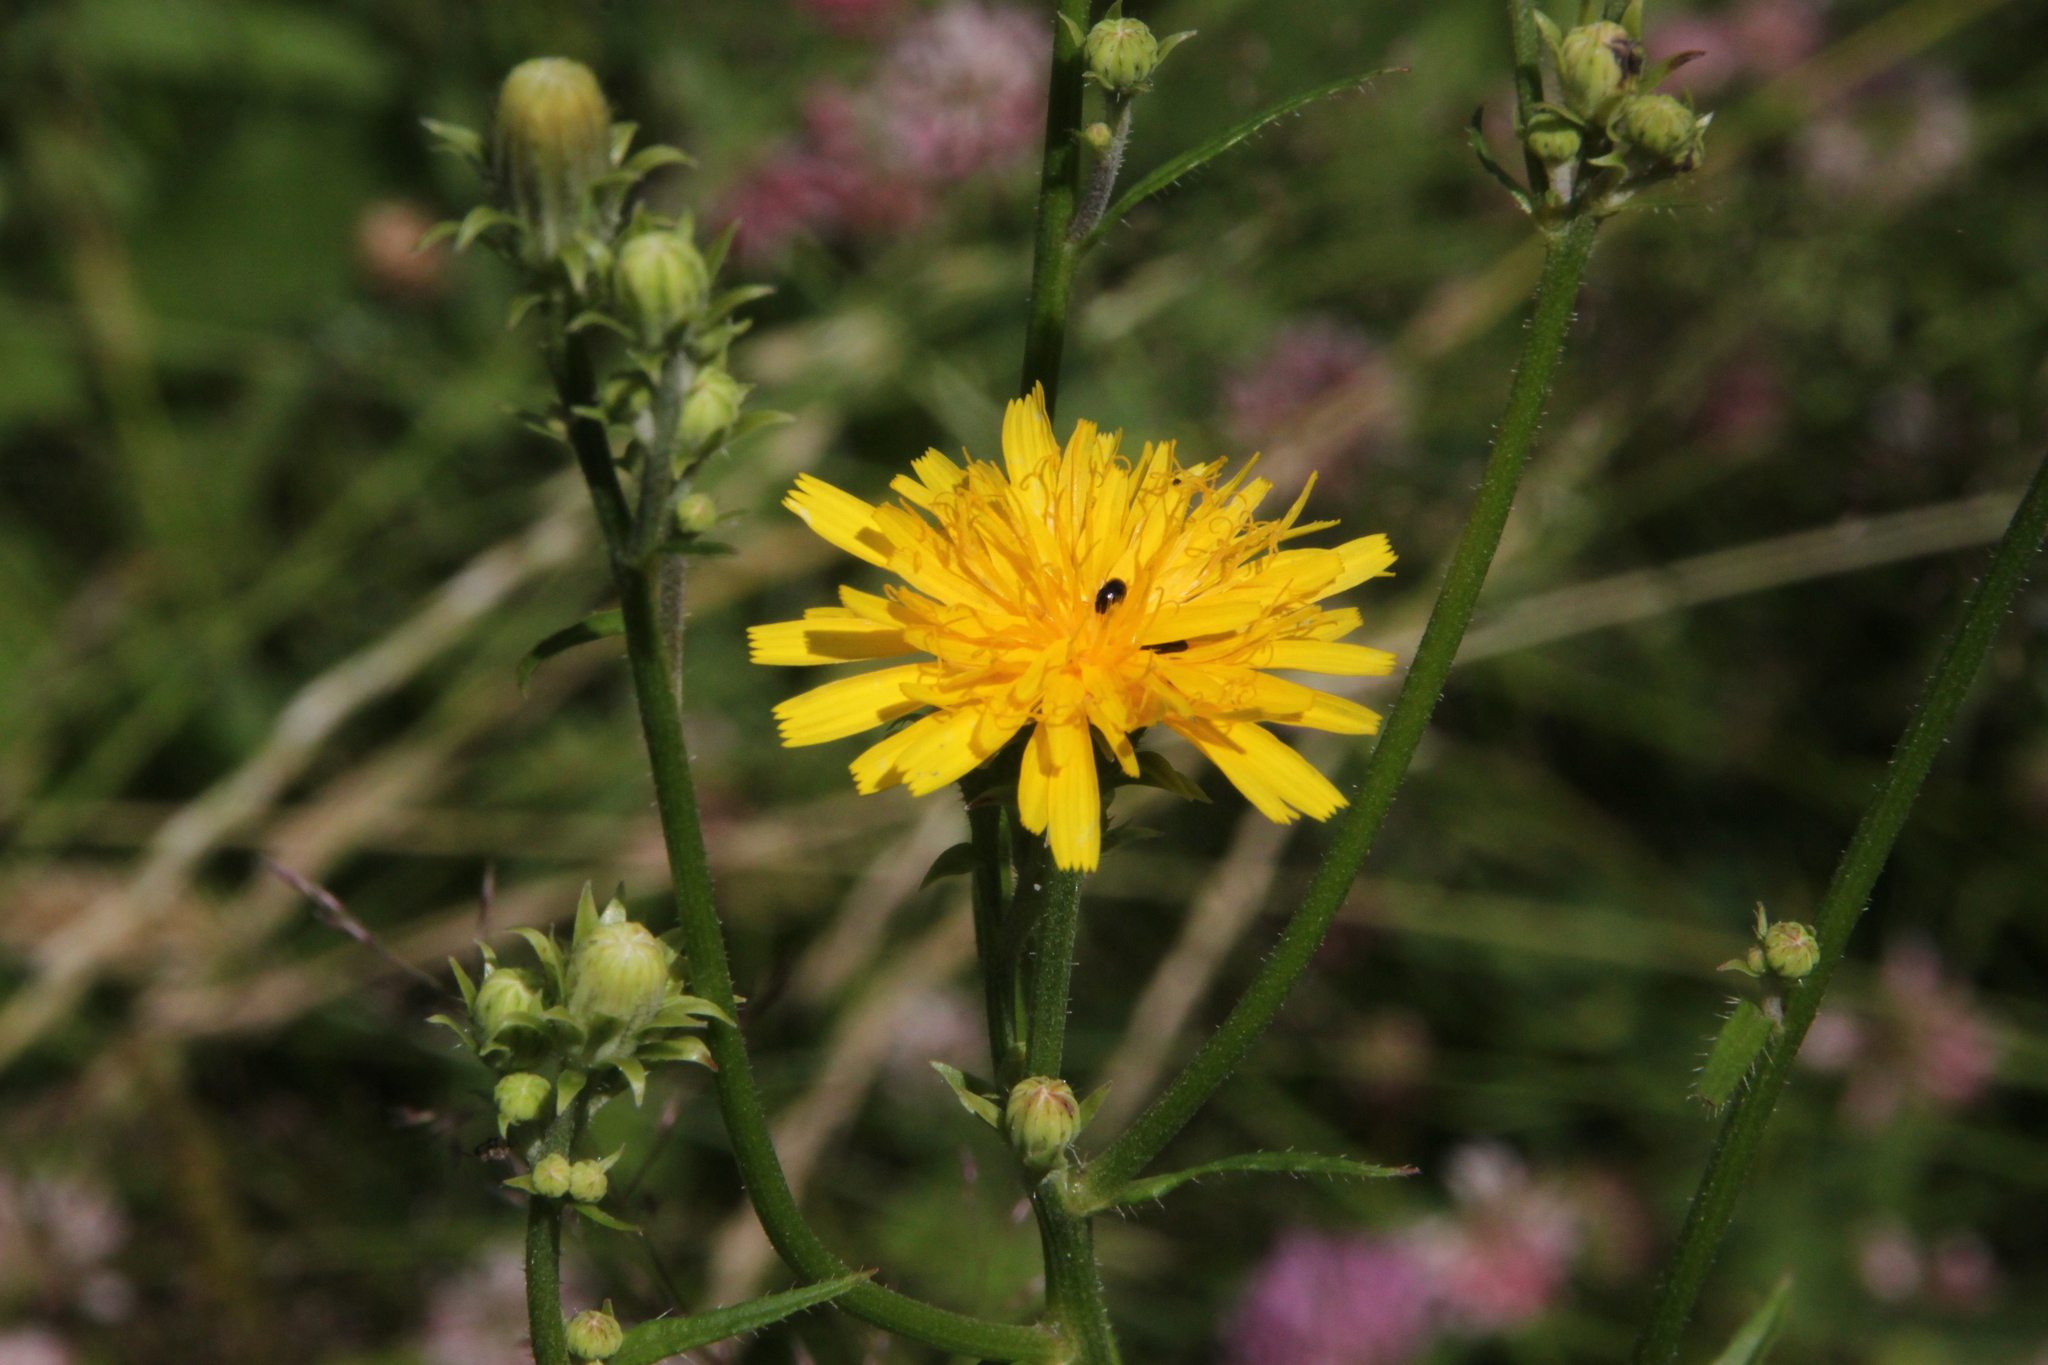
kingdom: Plantae
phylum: Tracheophyta
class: Magnoliopsida
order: Asterales
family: Asteraceae
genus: Picris
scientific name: Picris hieracioides
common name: Hawkweed oxtongue
